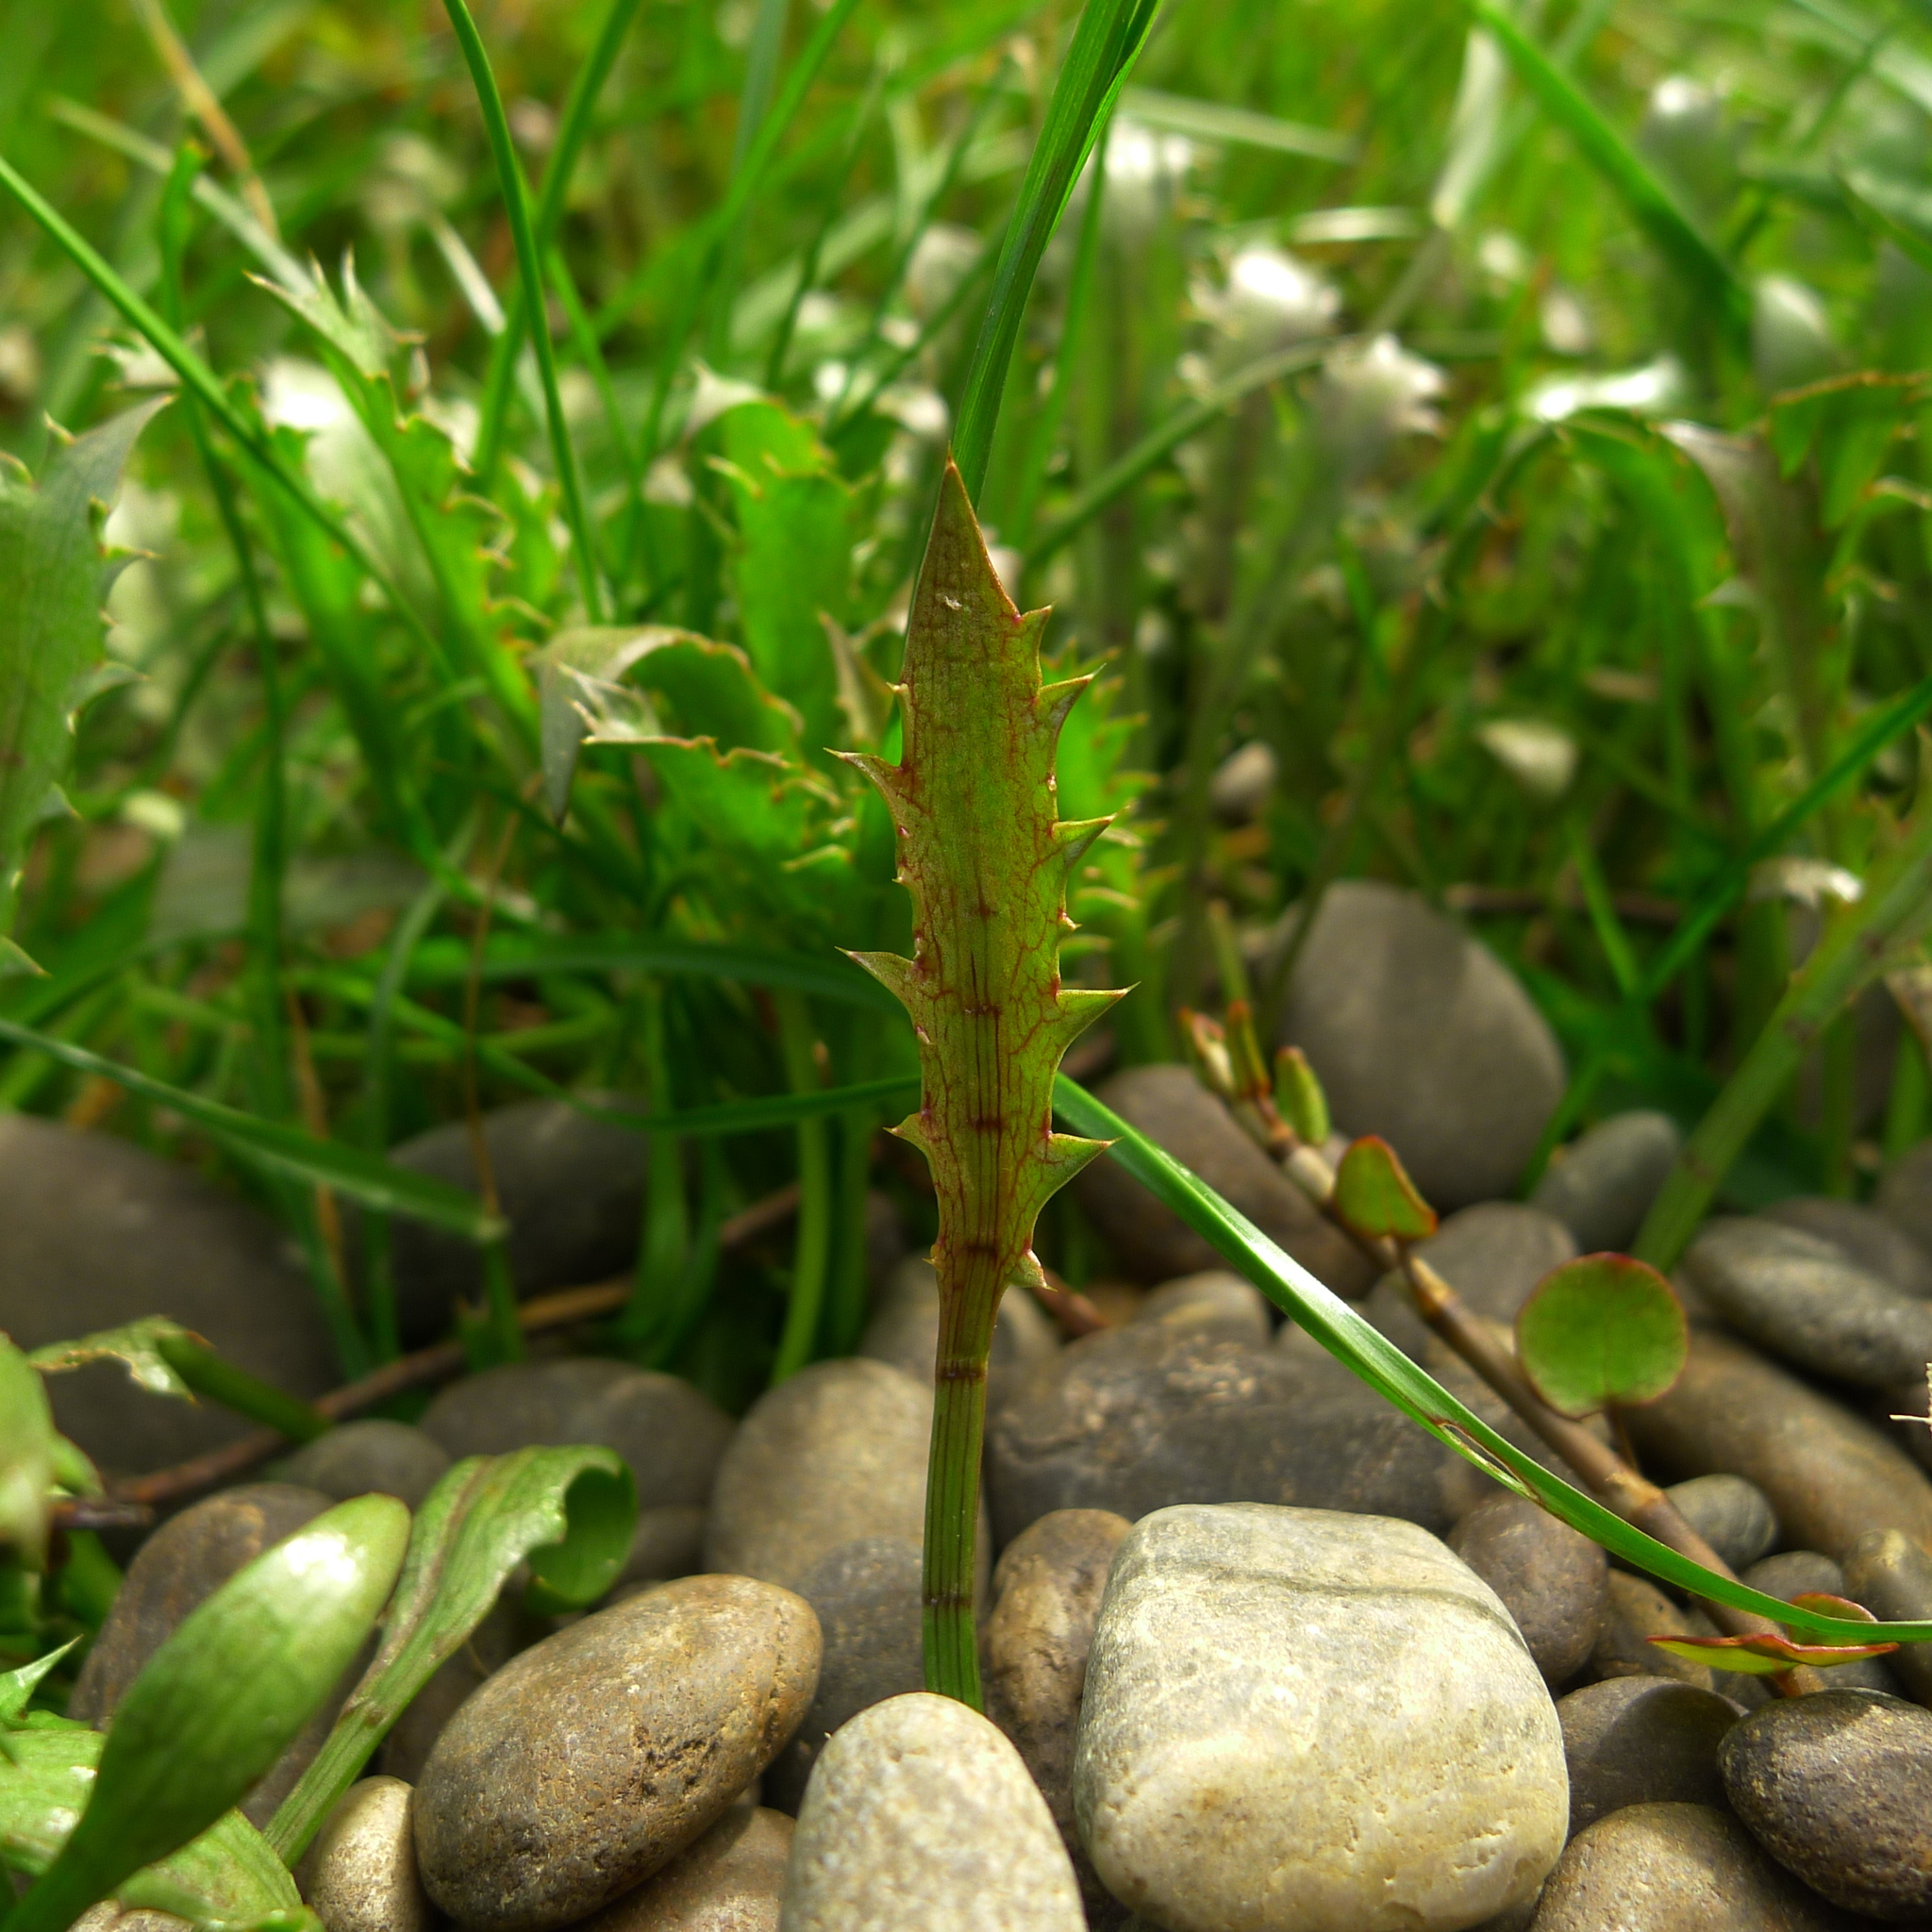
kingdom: Plantae
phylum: Tracheophyta
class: Magnoliopsida
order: Apiales
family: Apiaceae
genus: Eryngium
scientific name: Eryngium vesiculosum
